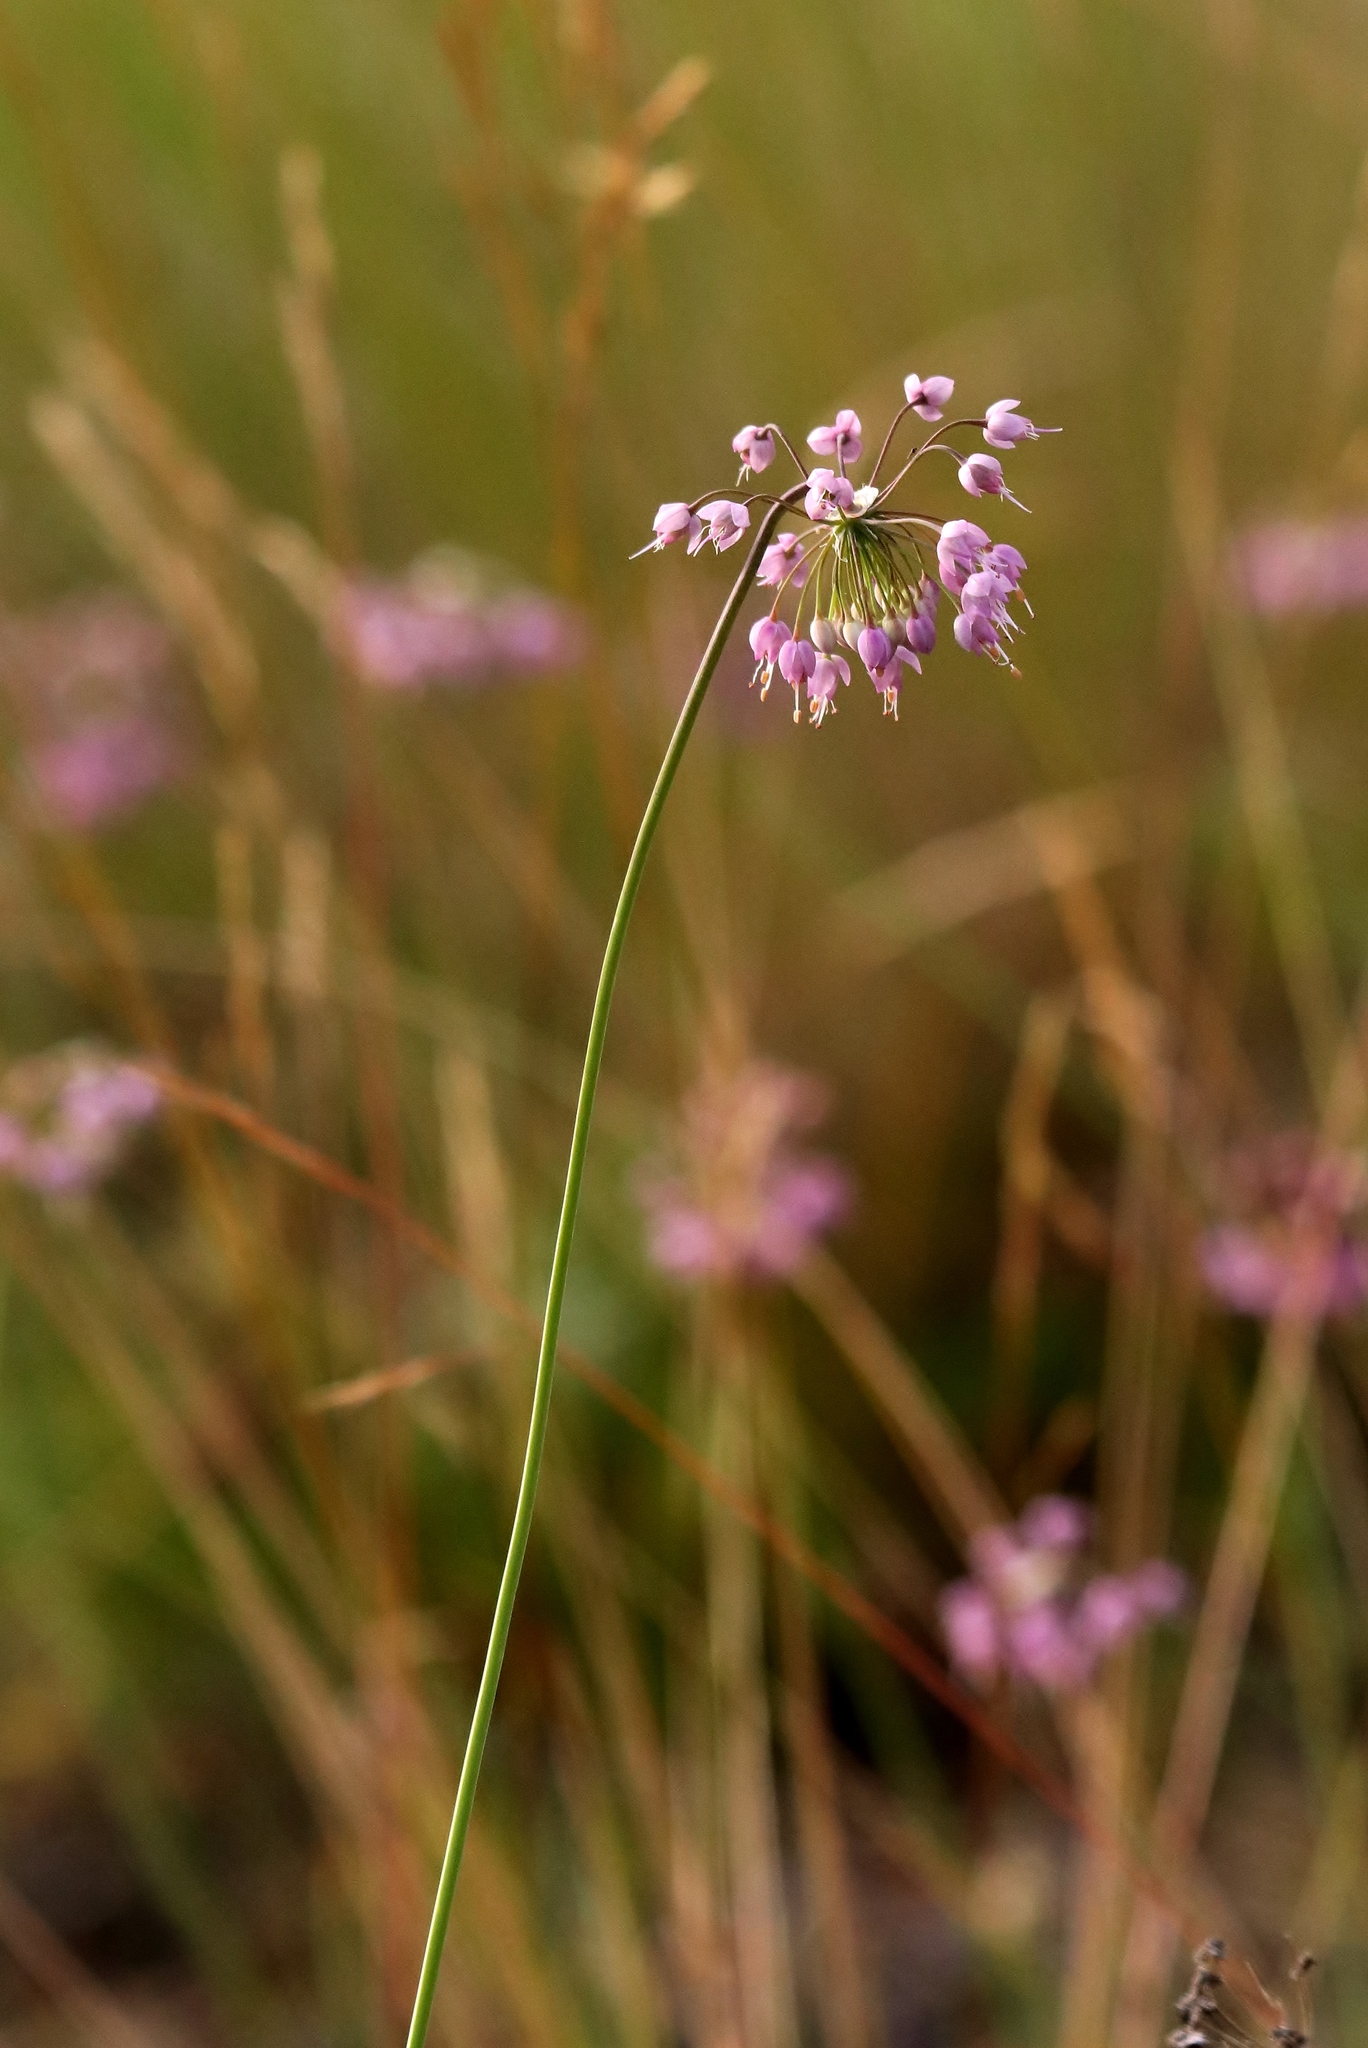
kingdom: Plantae
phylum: Tracheophyta
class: Liliopsida
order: Asparagales
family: Amaryllidaceae
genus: Allium
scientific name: Allium cernuum
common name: Nodding onion
